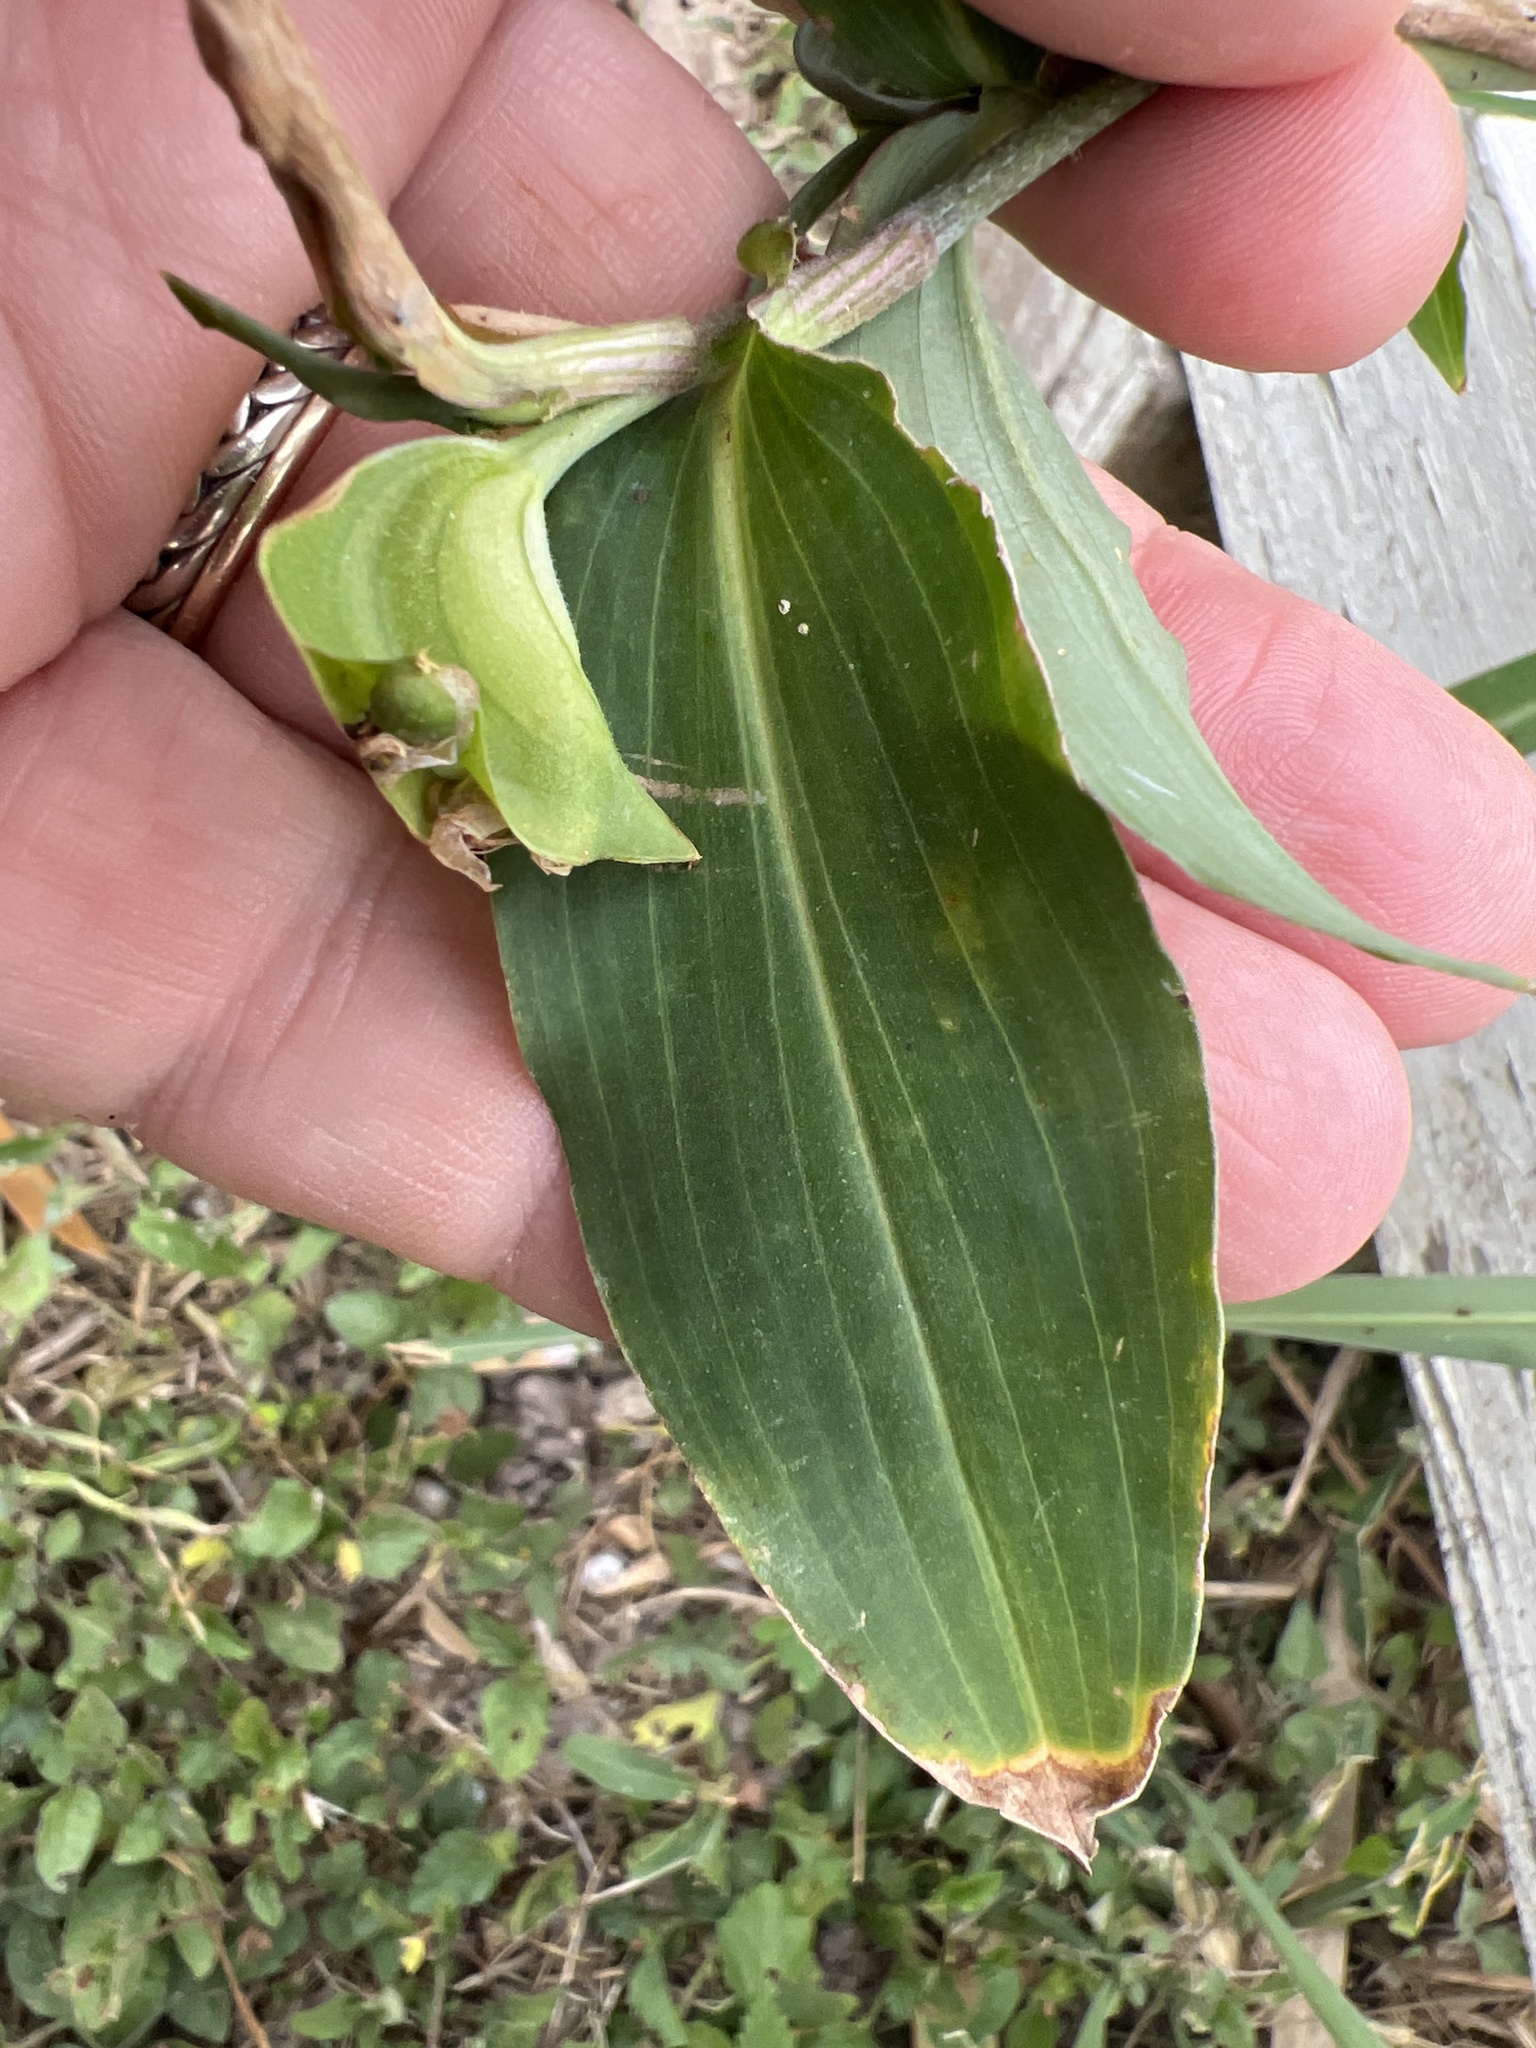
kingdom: Plantae
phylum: Tracheophyta
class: Liliopsida
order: Commelinales
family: Commelinaceae
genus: Commelina
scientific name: Commelina erecta
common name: Blousel blommetjie
